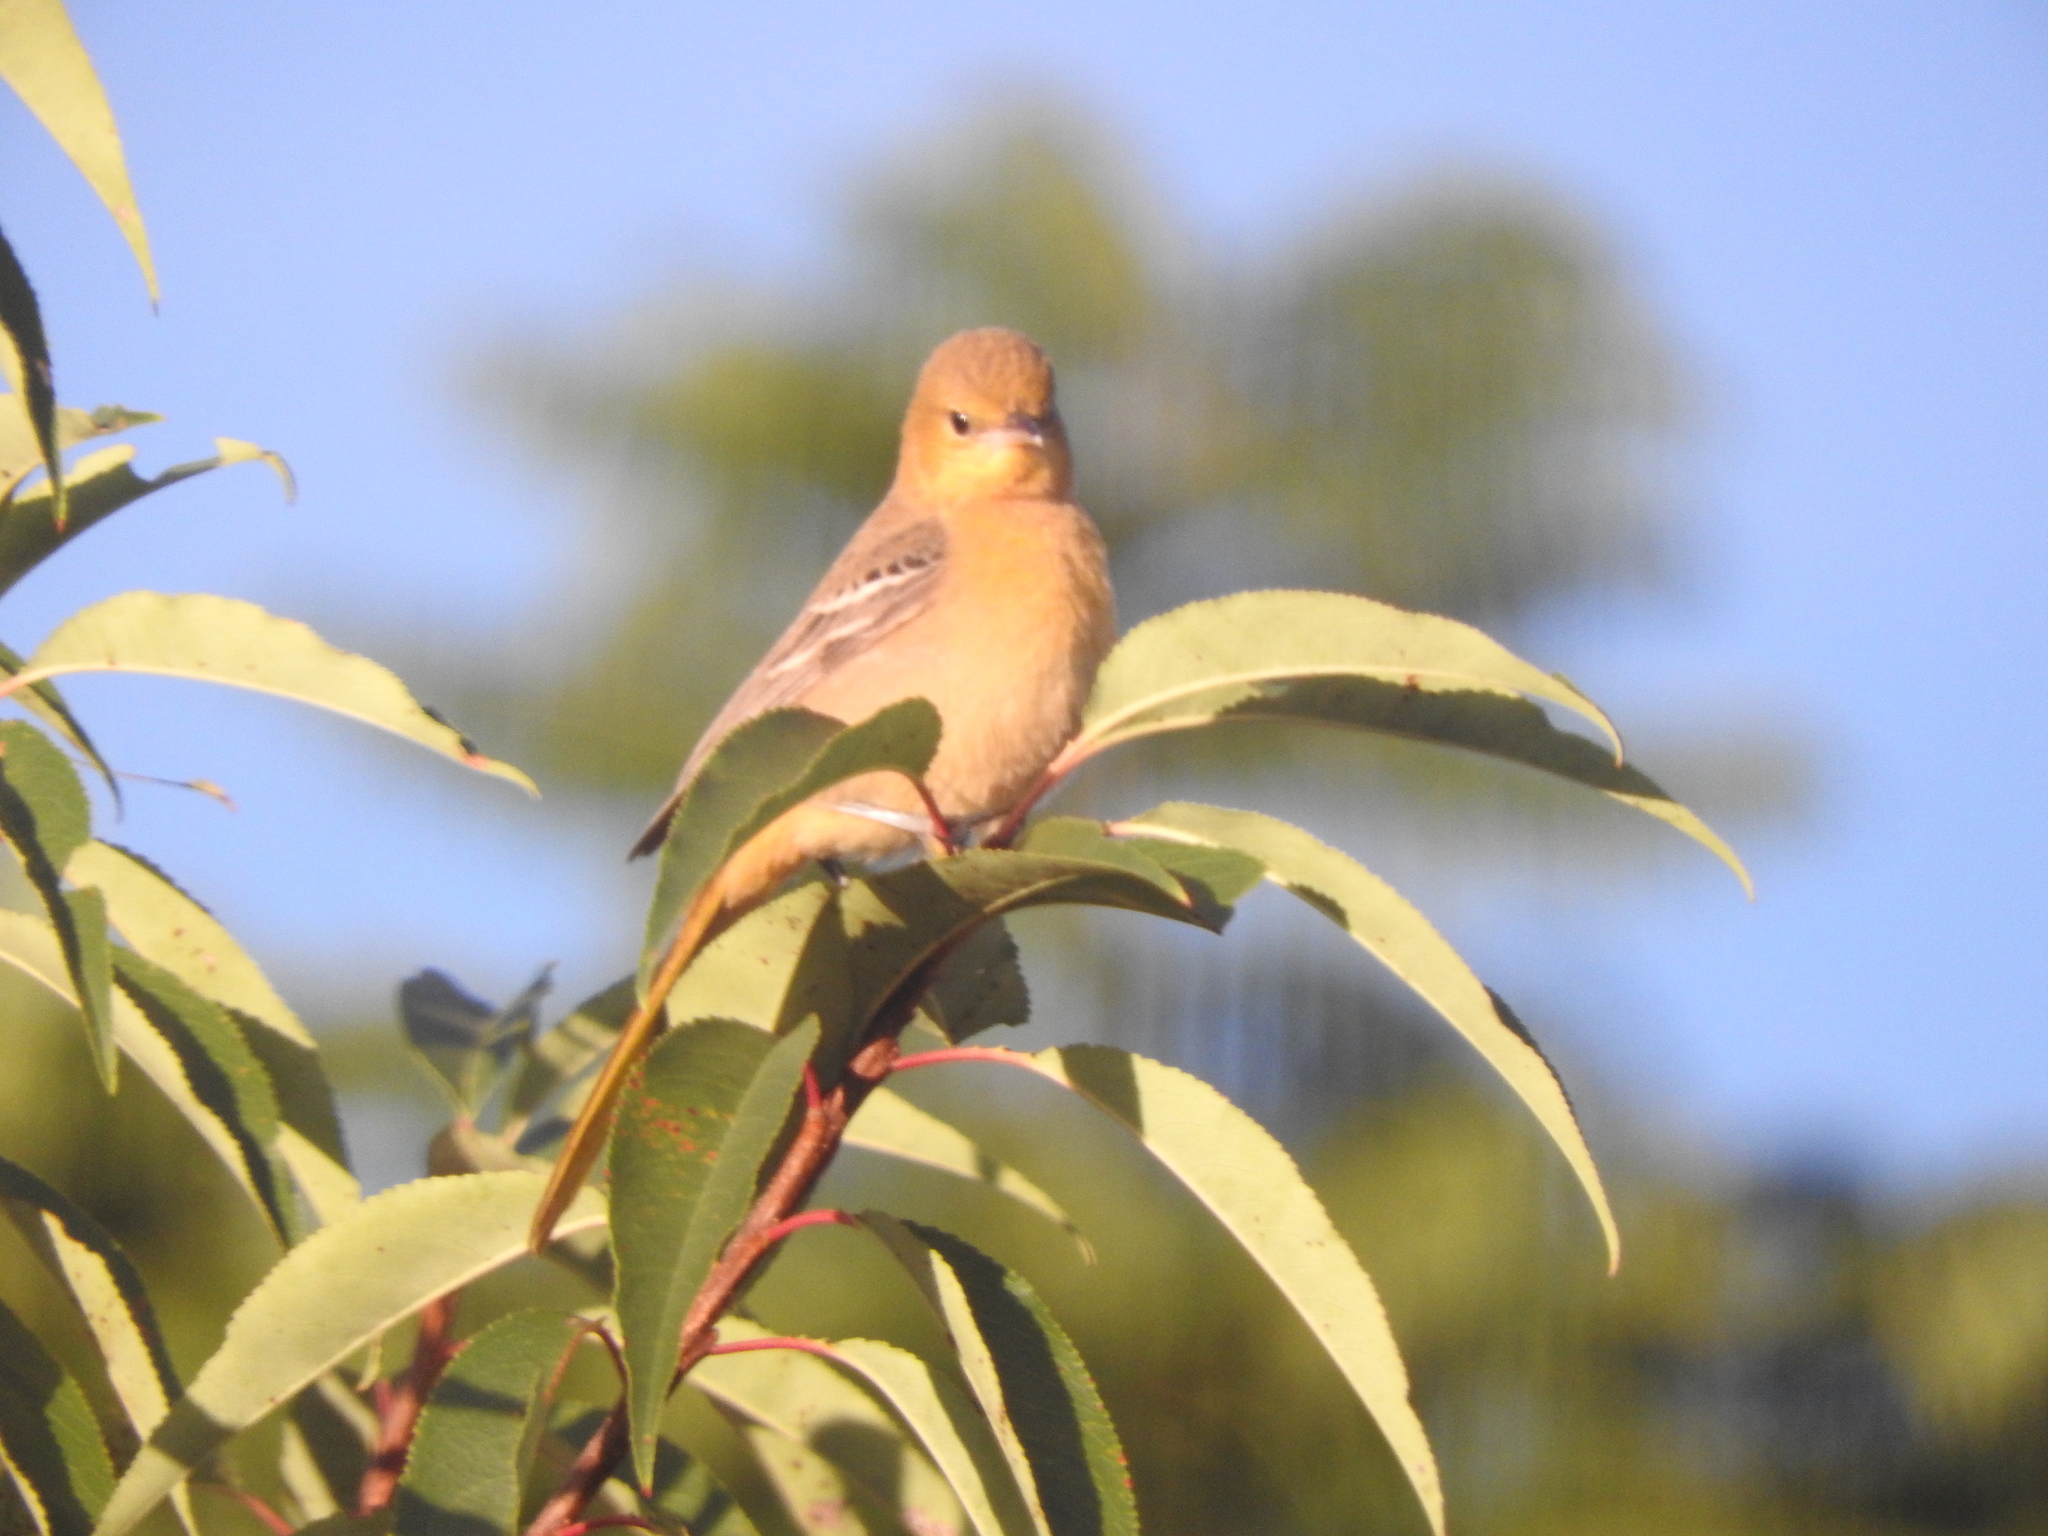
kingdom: Animalia
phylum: Chordata
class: Aves
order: Passeriformes
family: Icteridae
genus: Icterus
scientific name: Icterus cucullatus
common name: Hooded oriole
